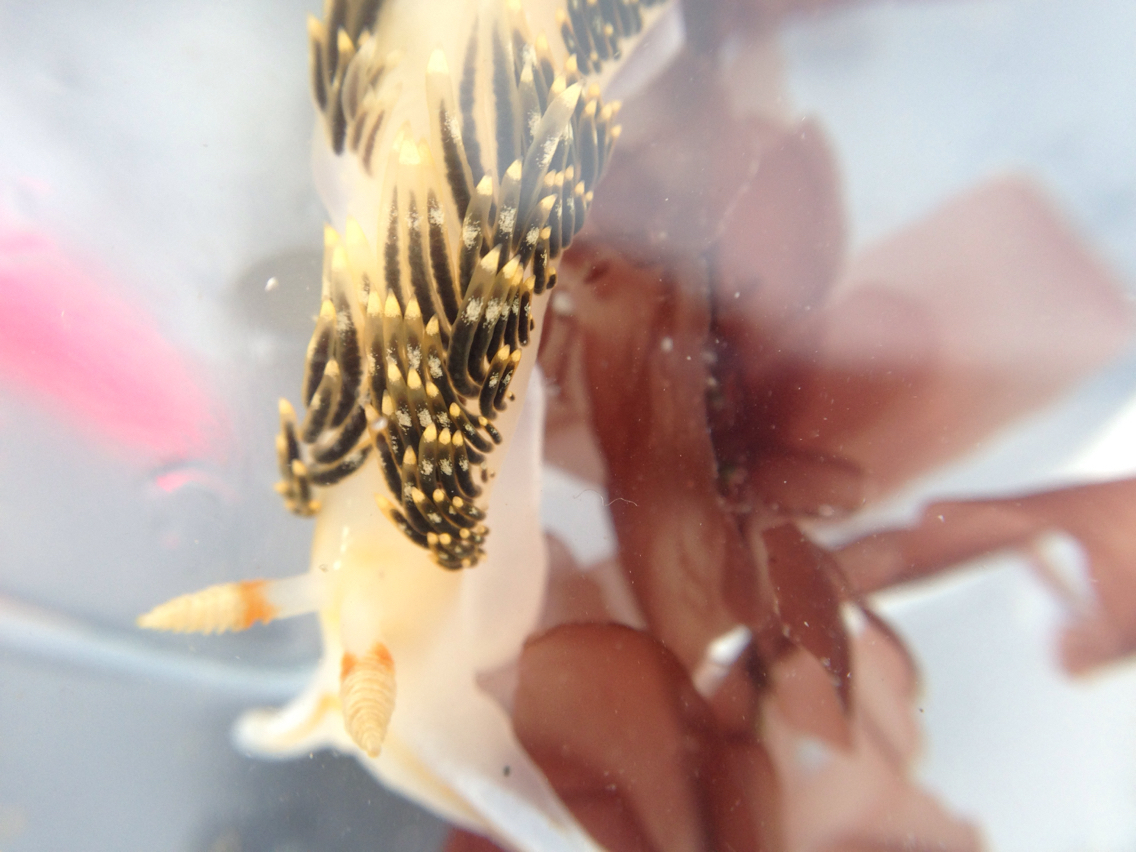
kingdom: Animalia
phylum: Mollusca
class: Gastropoda
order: Nudibranchia
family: Facelinidae
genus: Phidiana
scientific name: Phidiana hiltoni
